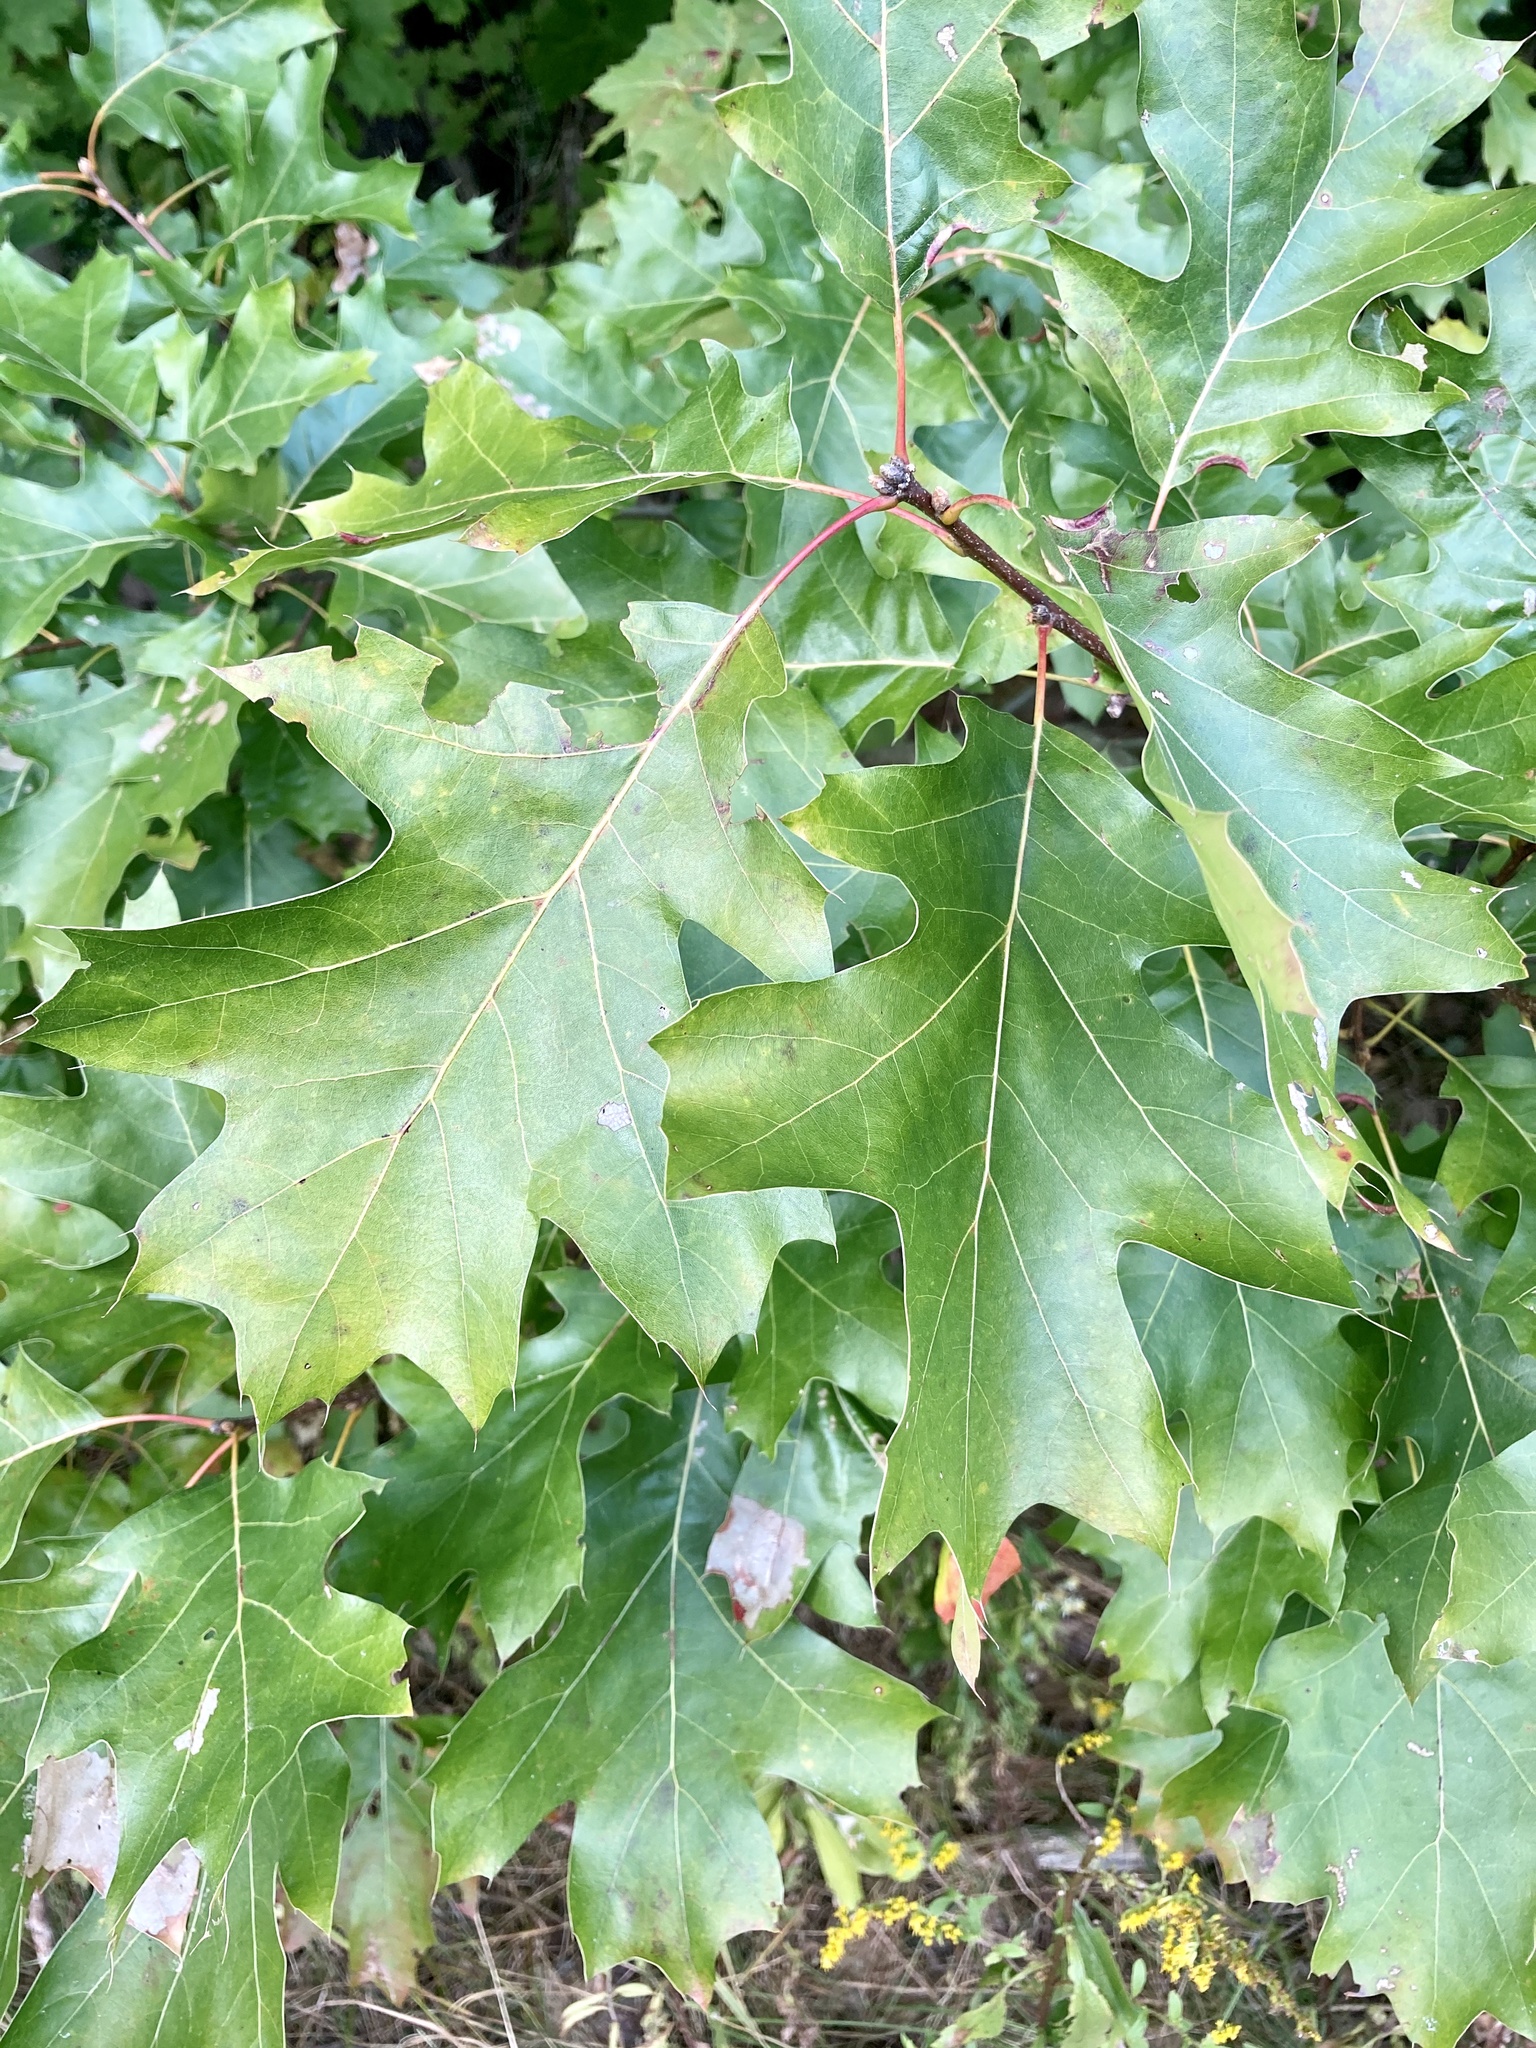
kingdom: Plantae
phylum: Tracheophyta
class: Magnoliopsida
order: Fagales
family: Fagaceae
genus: Quercus
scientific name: Quercus rubra
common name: Red oak
